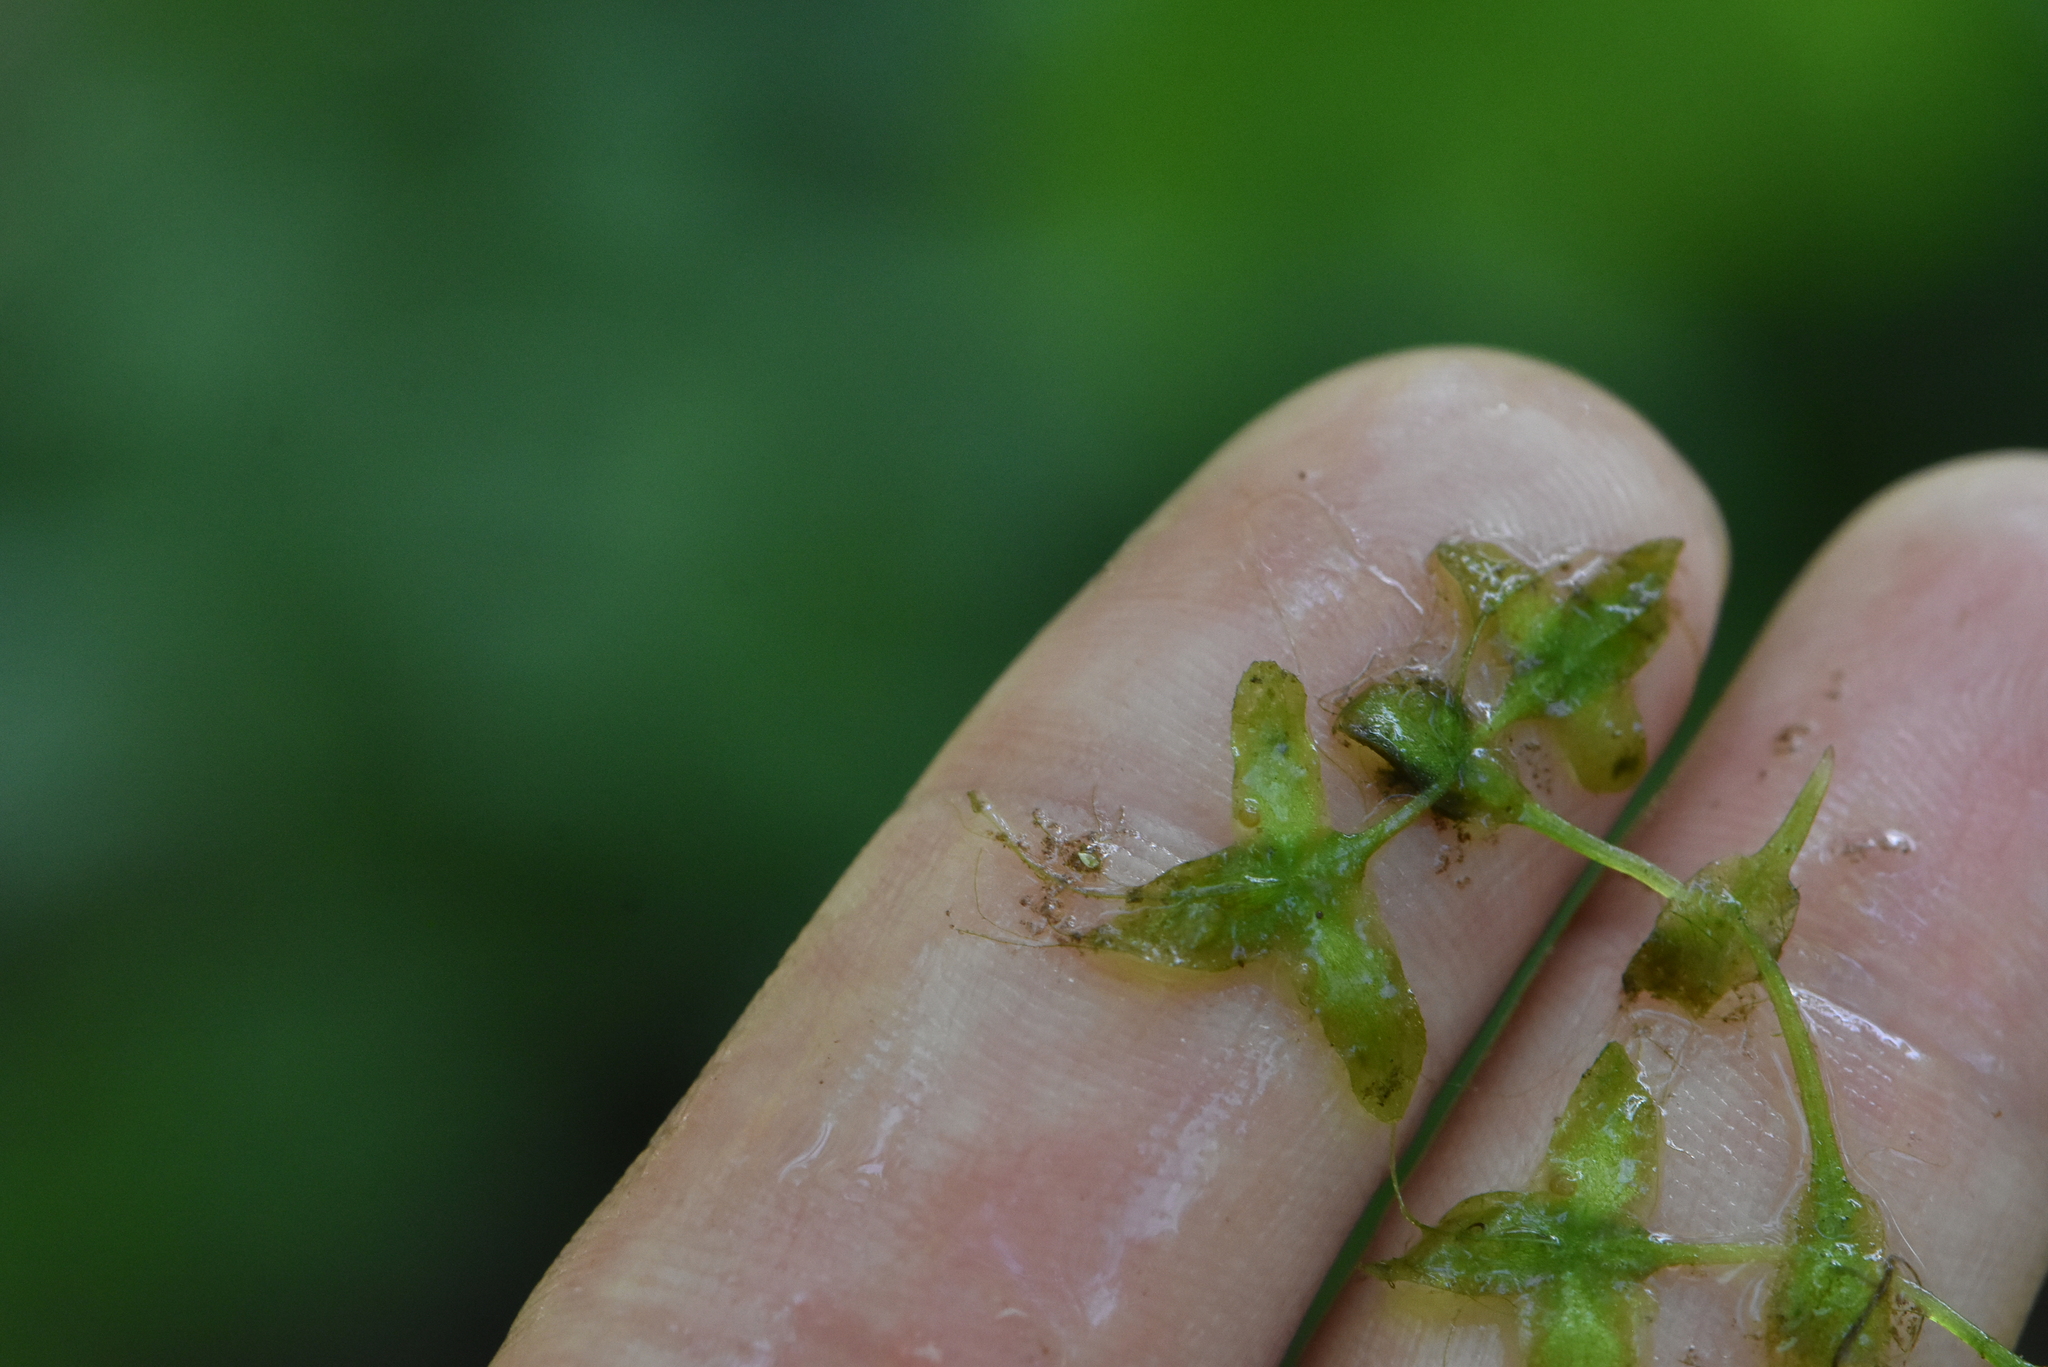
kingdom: Plantae
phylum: Tracheophyta
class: Liliopsida
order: Alismatales
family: Araceae
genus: Lemna
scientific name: Lemna trisulca
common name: Ivy-leaved duckweed
